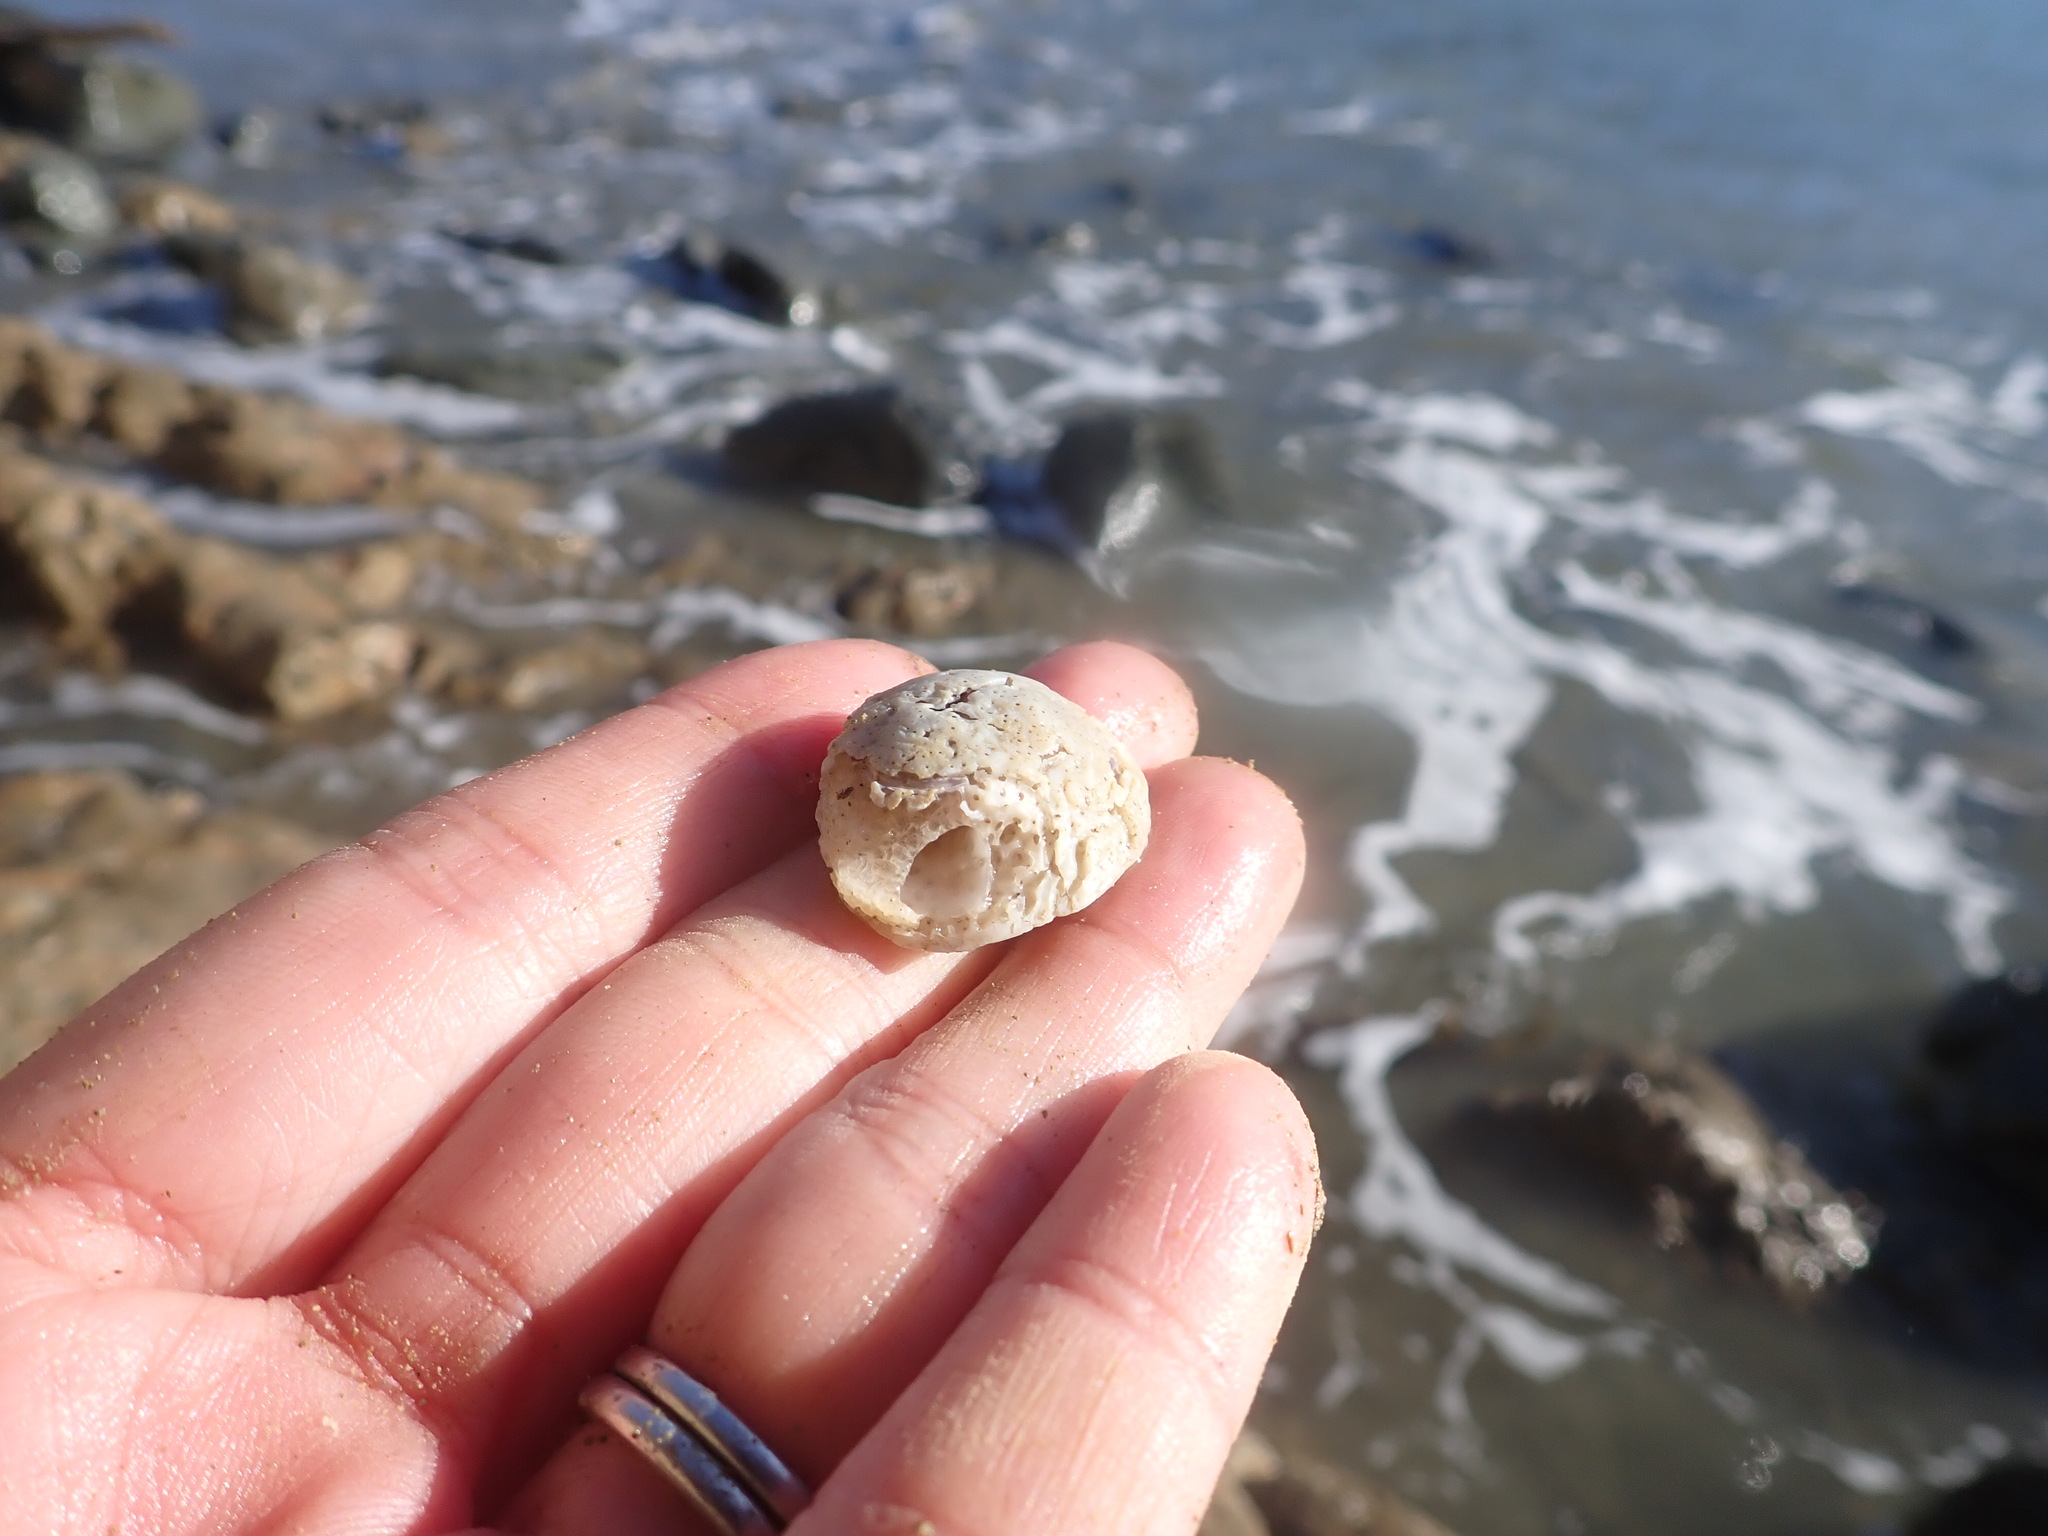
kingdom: Animalia
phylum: Mollusca
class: Gastropoda
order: Littorinimorpha
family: Calyptraeidae
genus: Sigapatella
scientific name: Sigapatella novaezelandiae
